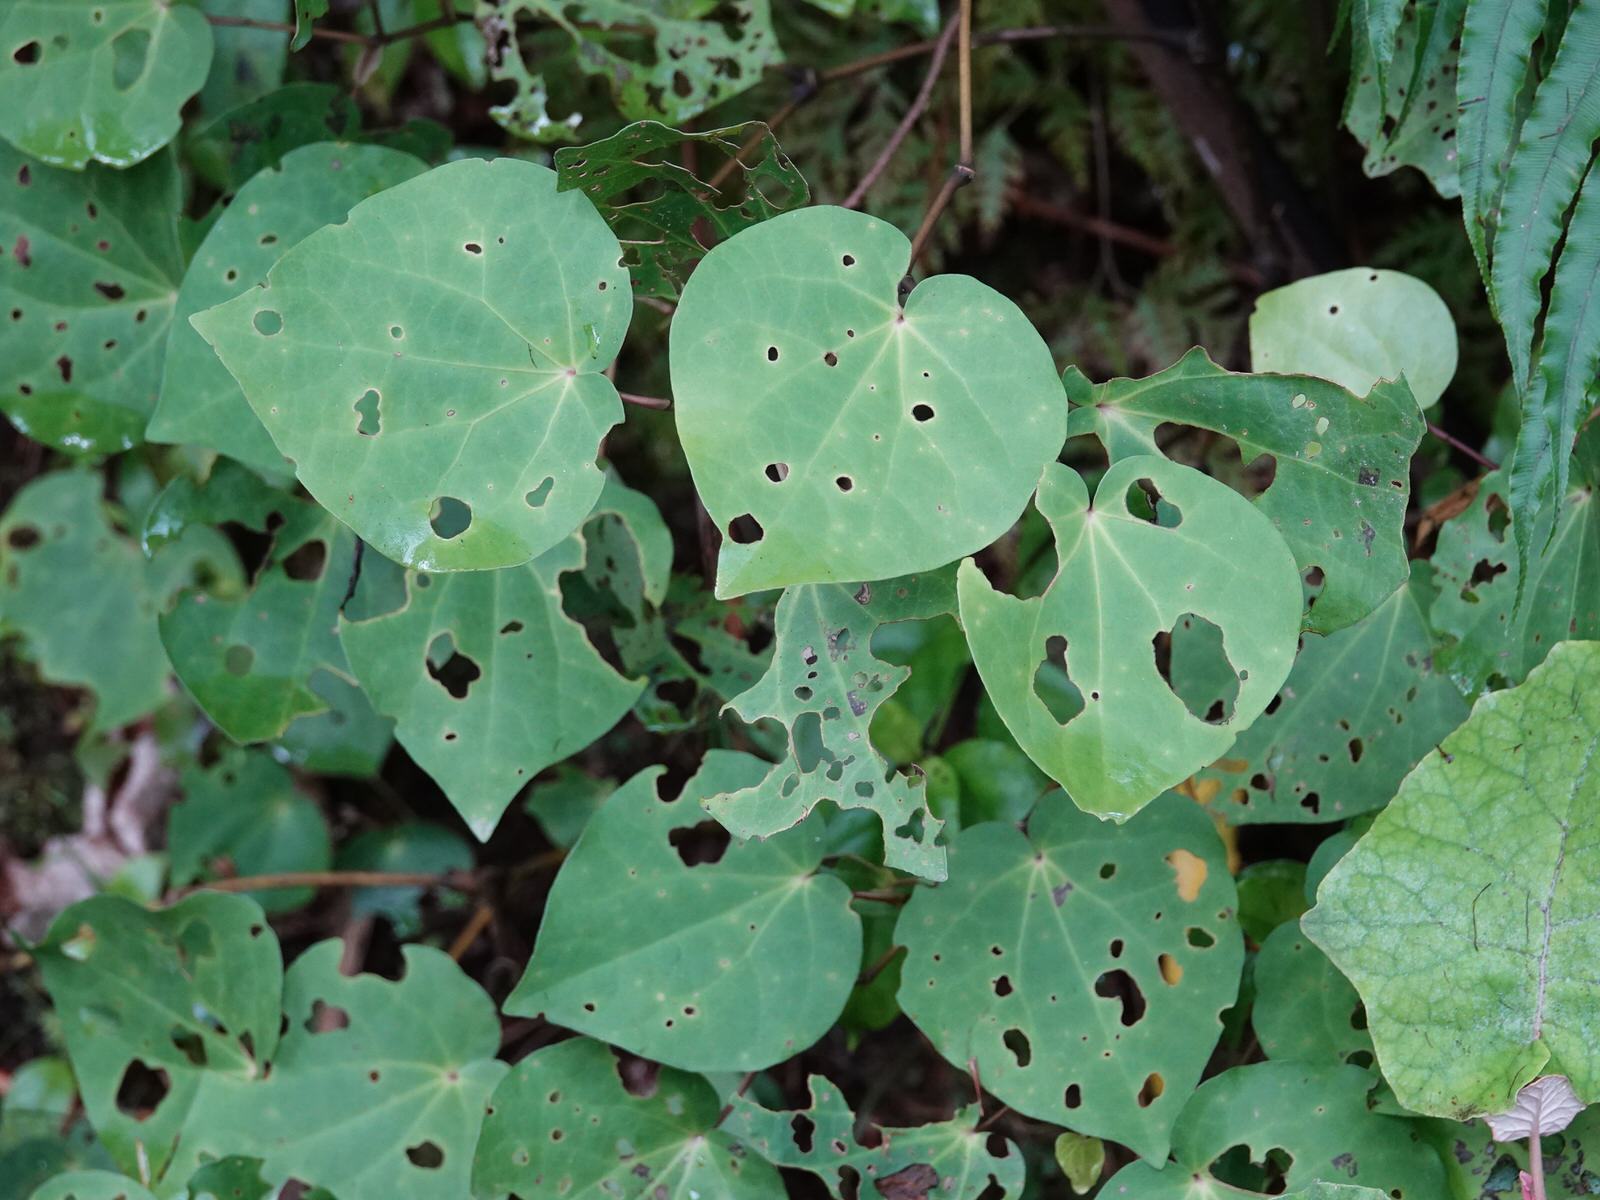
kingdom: Plantae
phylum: Tracheophyta
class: Magnoliopsida
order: Piperales
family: Piperaceae
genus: Macropiper
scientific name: Macropiper excelsum
